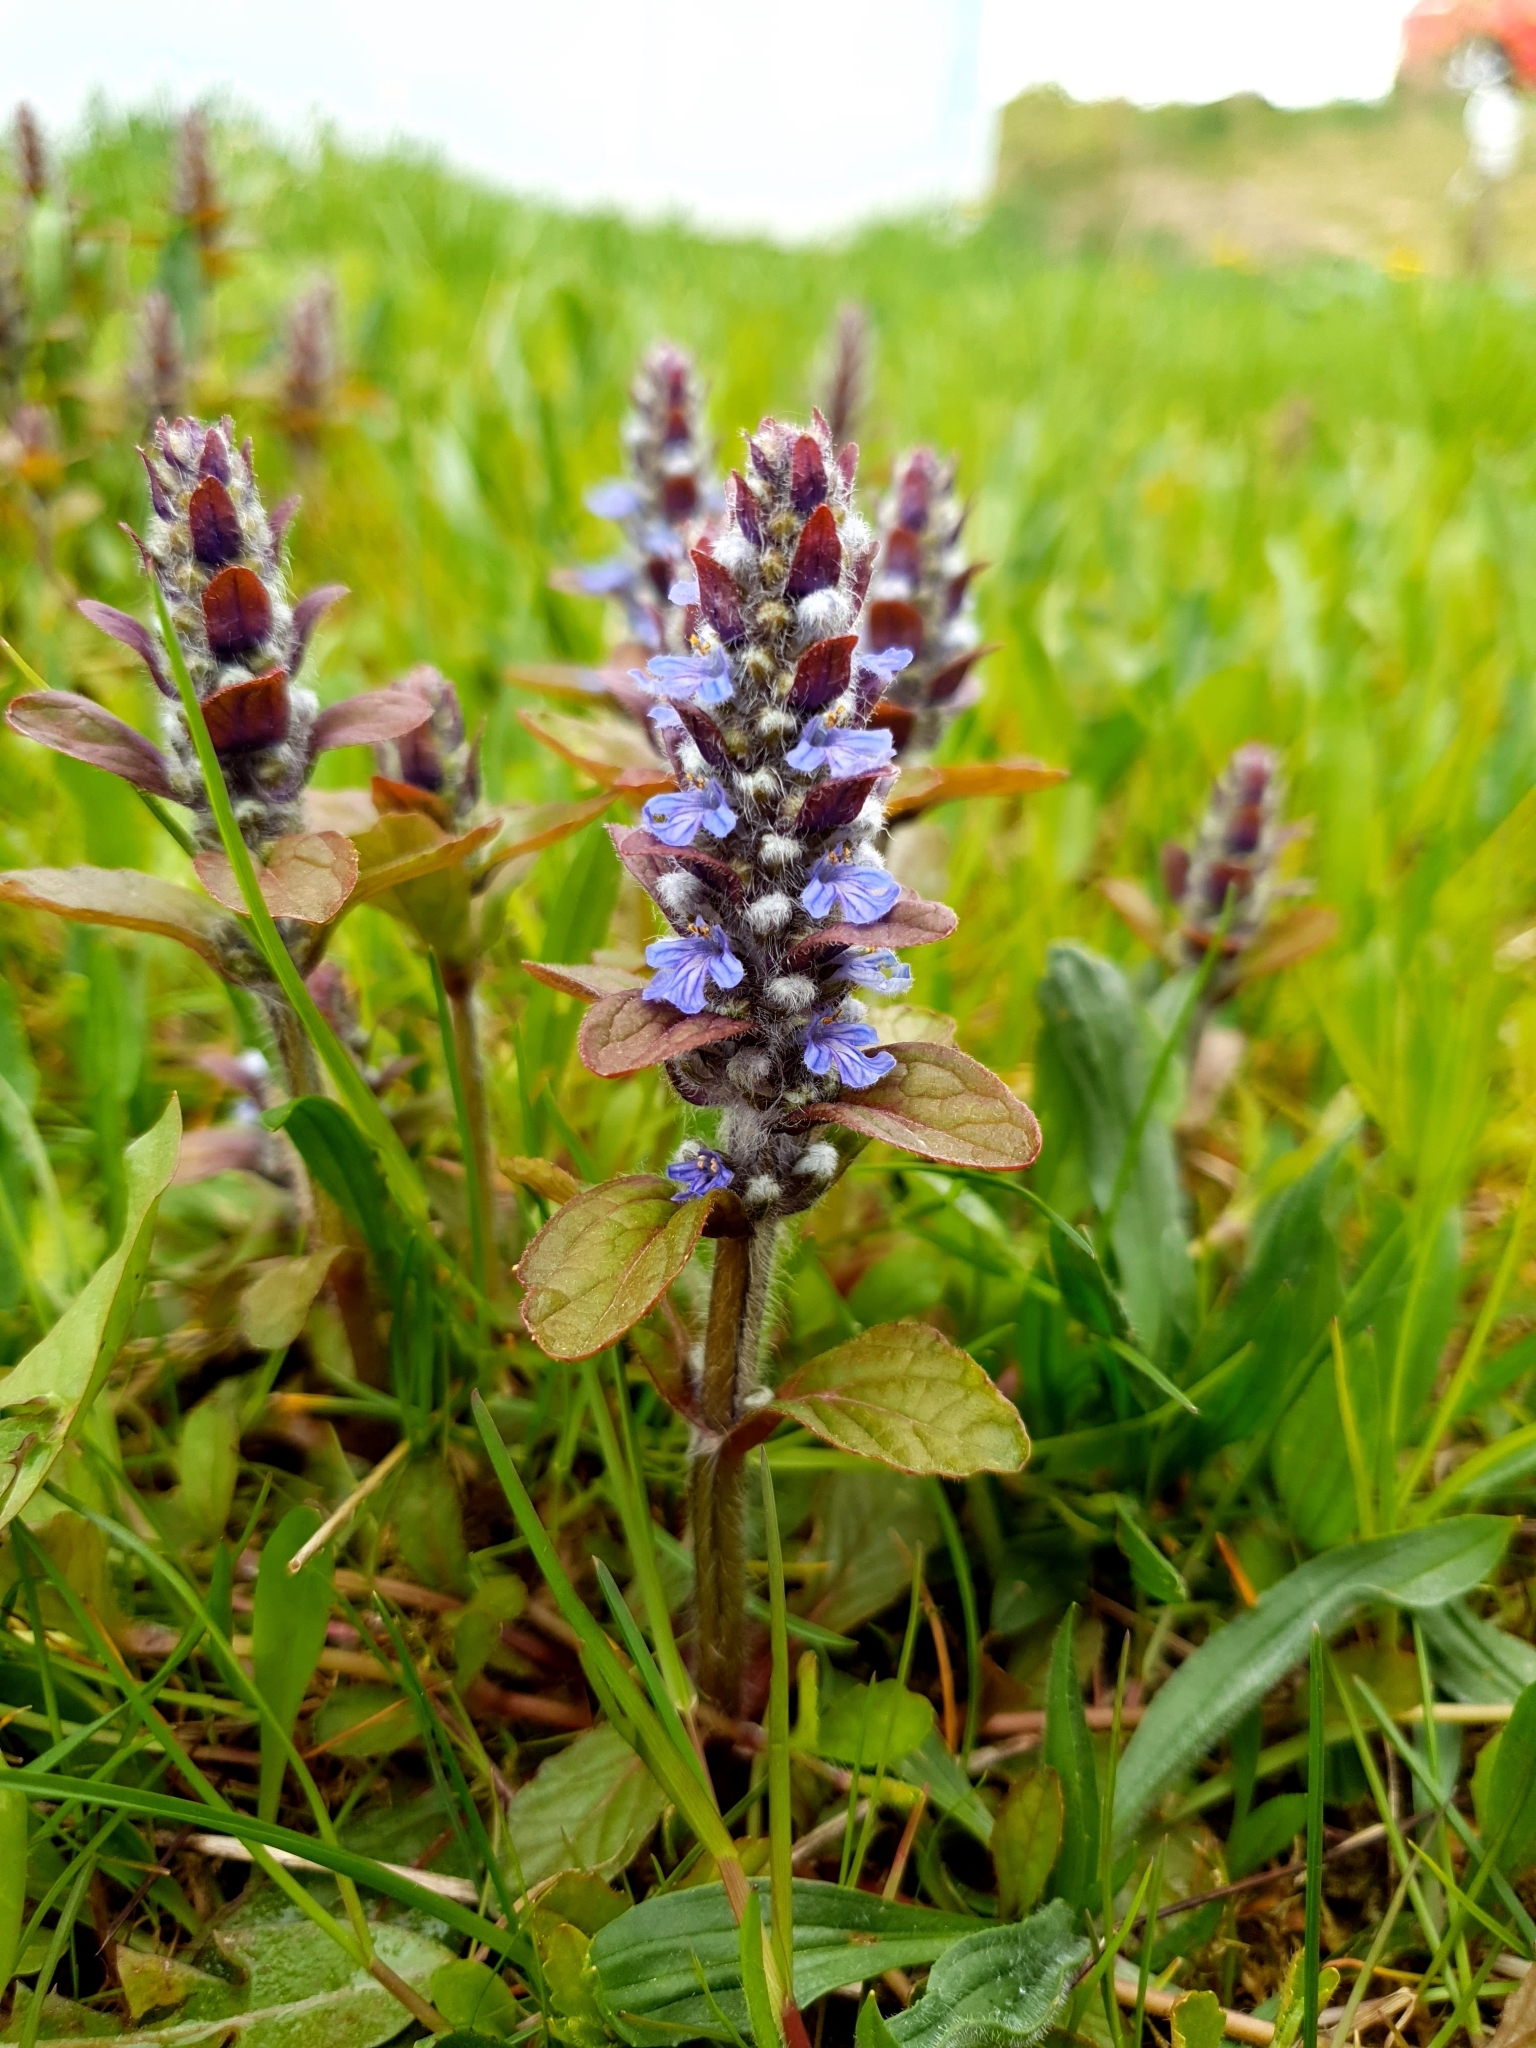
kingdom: Plantae
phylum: Tracheophyta
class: Magnoliopsida
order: Lamiales
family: Lamiaceae
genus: Ajuga
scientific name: Ajuga reptans
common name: Bugle
